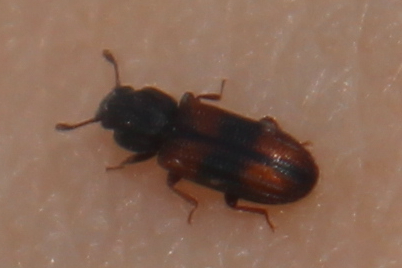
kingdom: Animalia
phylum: Arthropoda
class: Insecta
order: Coleoptera
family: Zopheridae
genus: Bitoma
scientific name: Bitoma crenata
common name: Bark beetle
